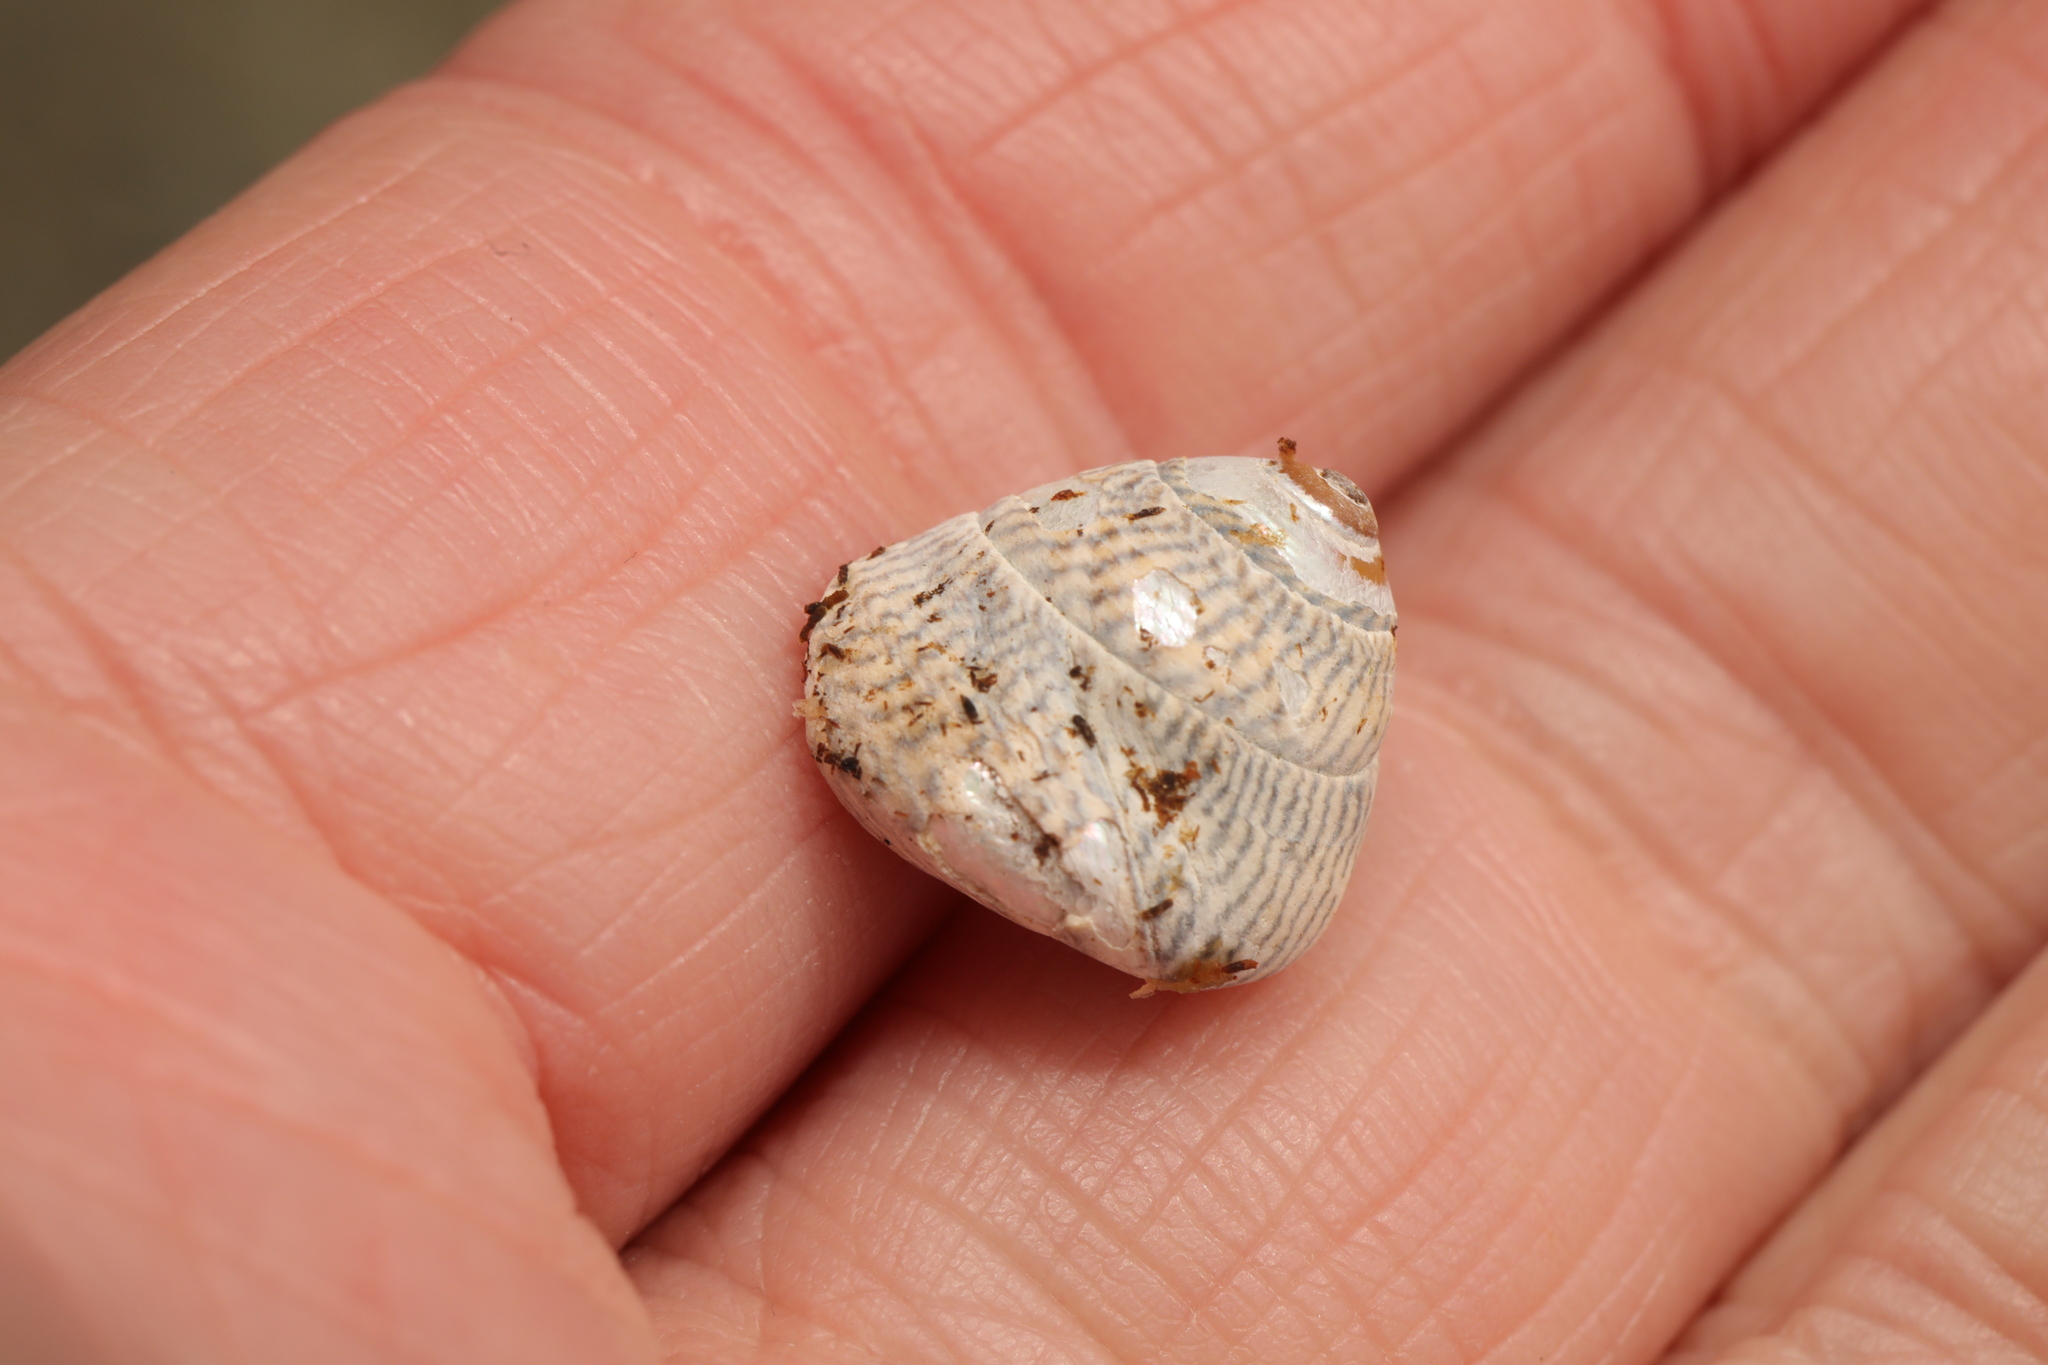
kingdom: Animalia
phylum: Mollusca
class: Gastropoda
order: Trochida
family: Trochidae
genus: Steromphala
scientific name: Steromphala cineraria
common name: Grey top shell
